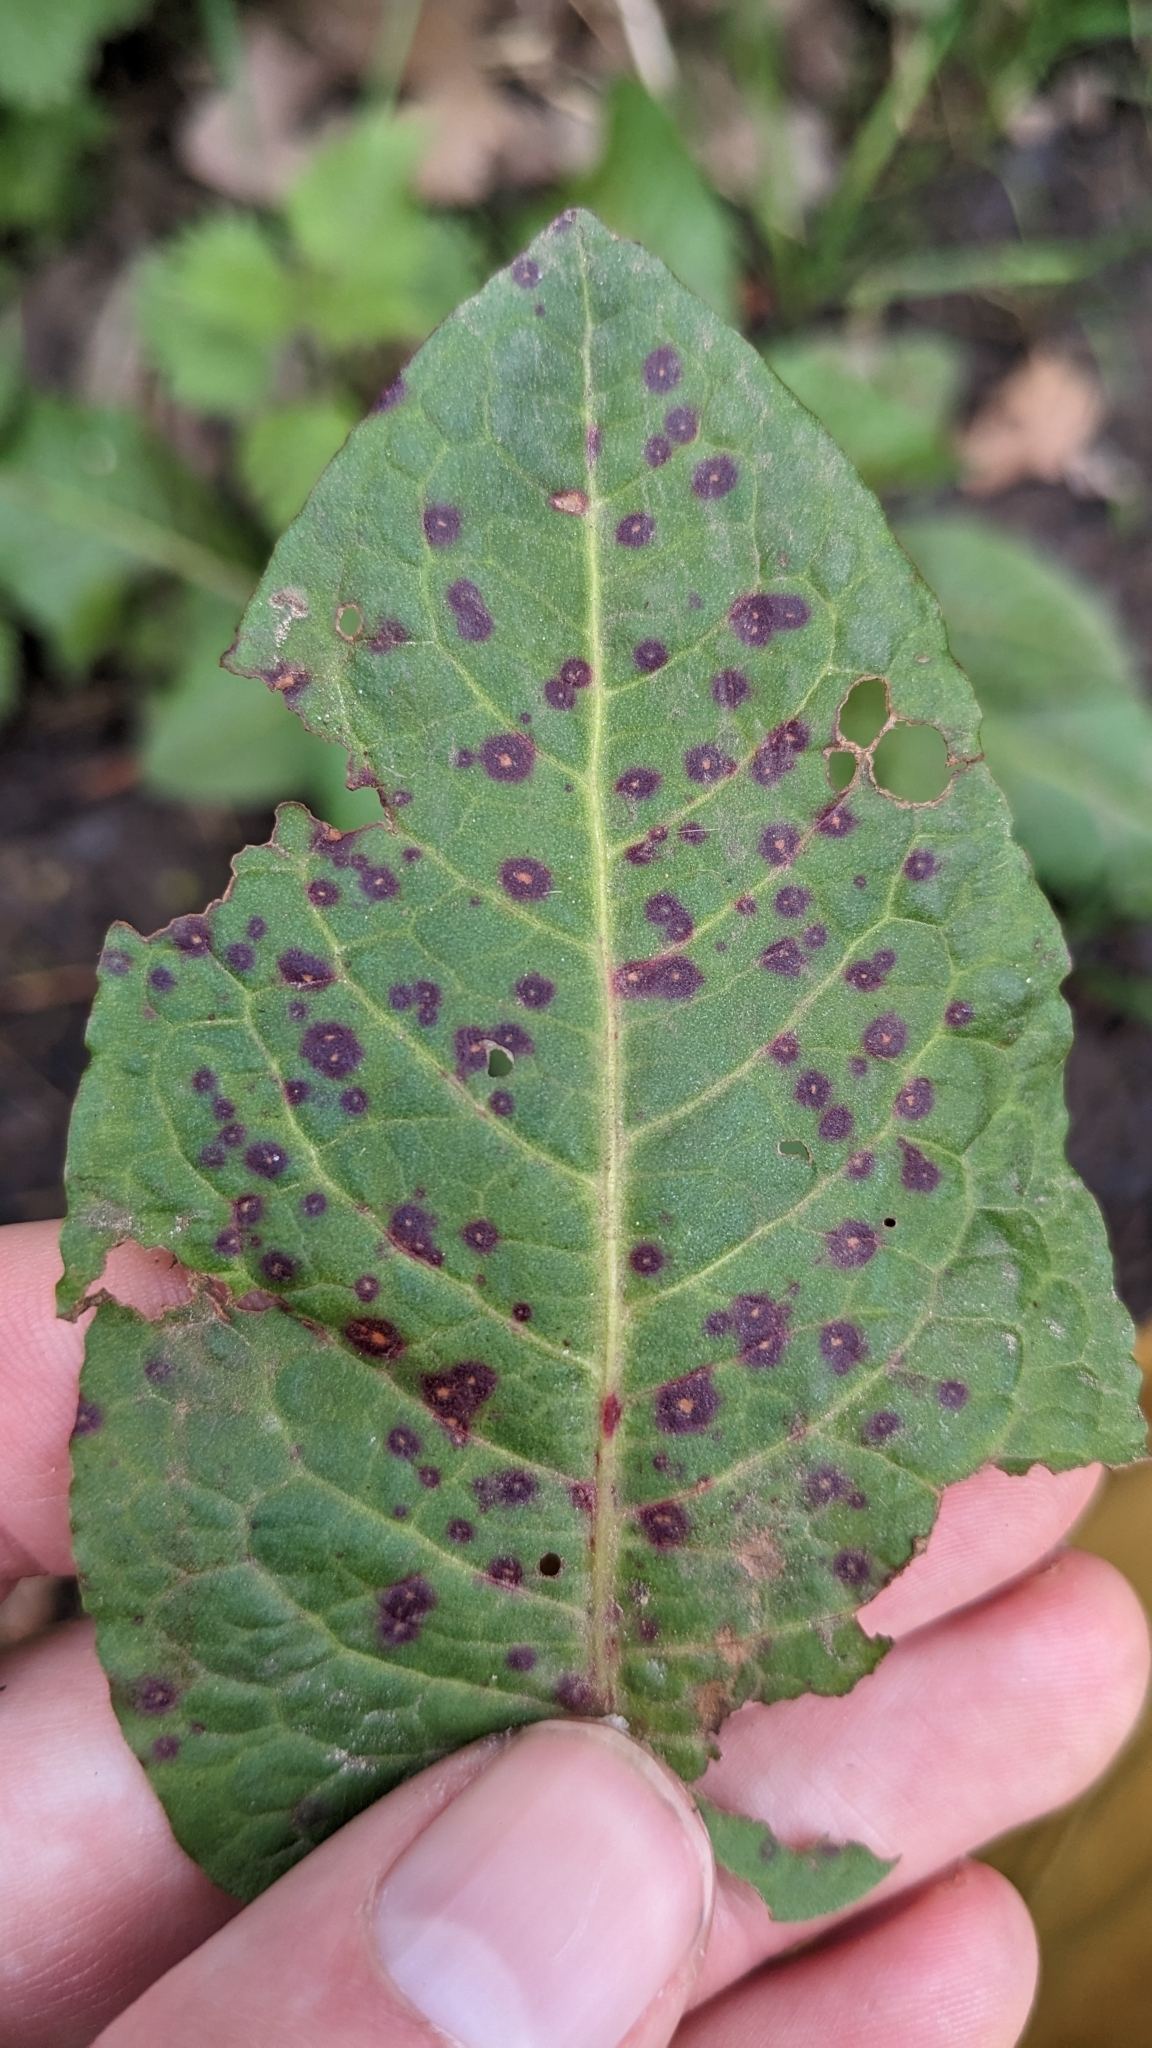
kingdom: Fungi
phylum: Ascomycota
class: Dothideomycetes
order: Mycosphaerellales
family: Mycosphaerellaceae
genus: Ramularia
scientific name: Ramularia rubella
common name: Red dock spot
